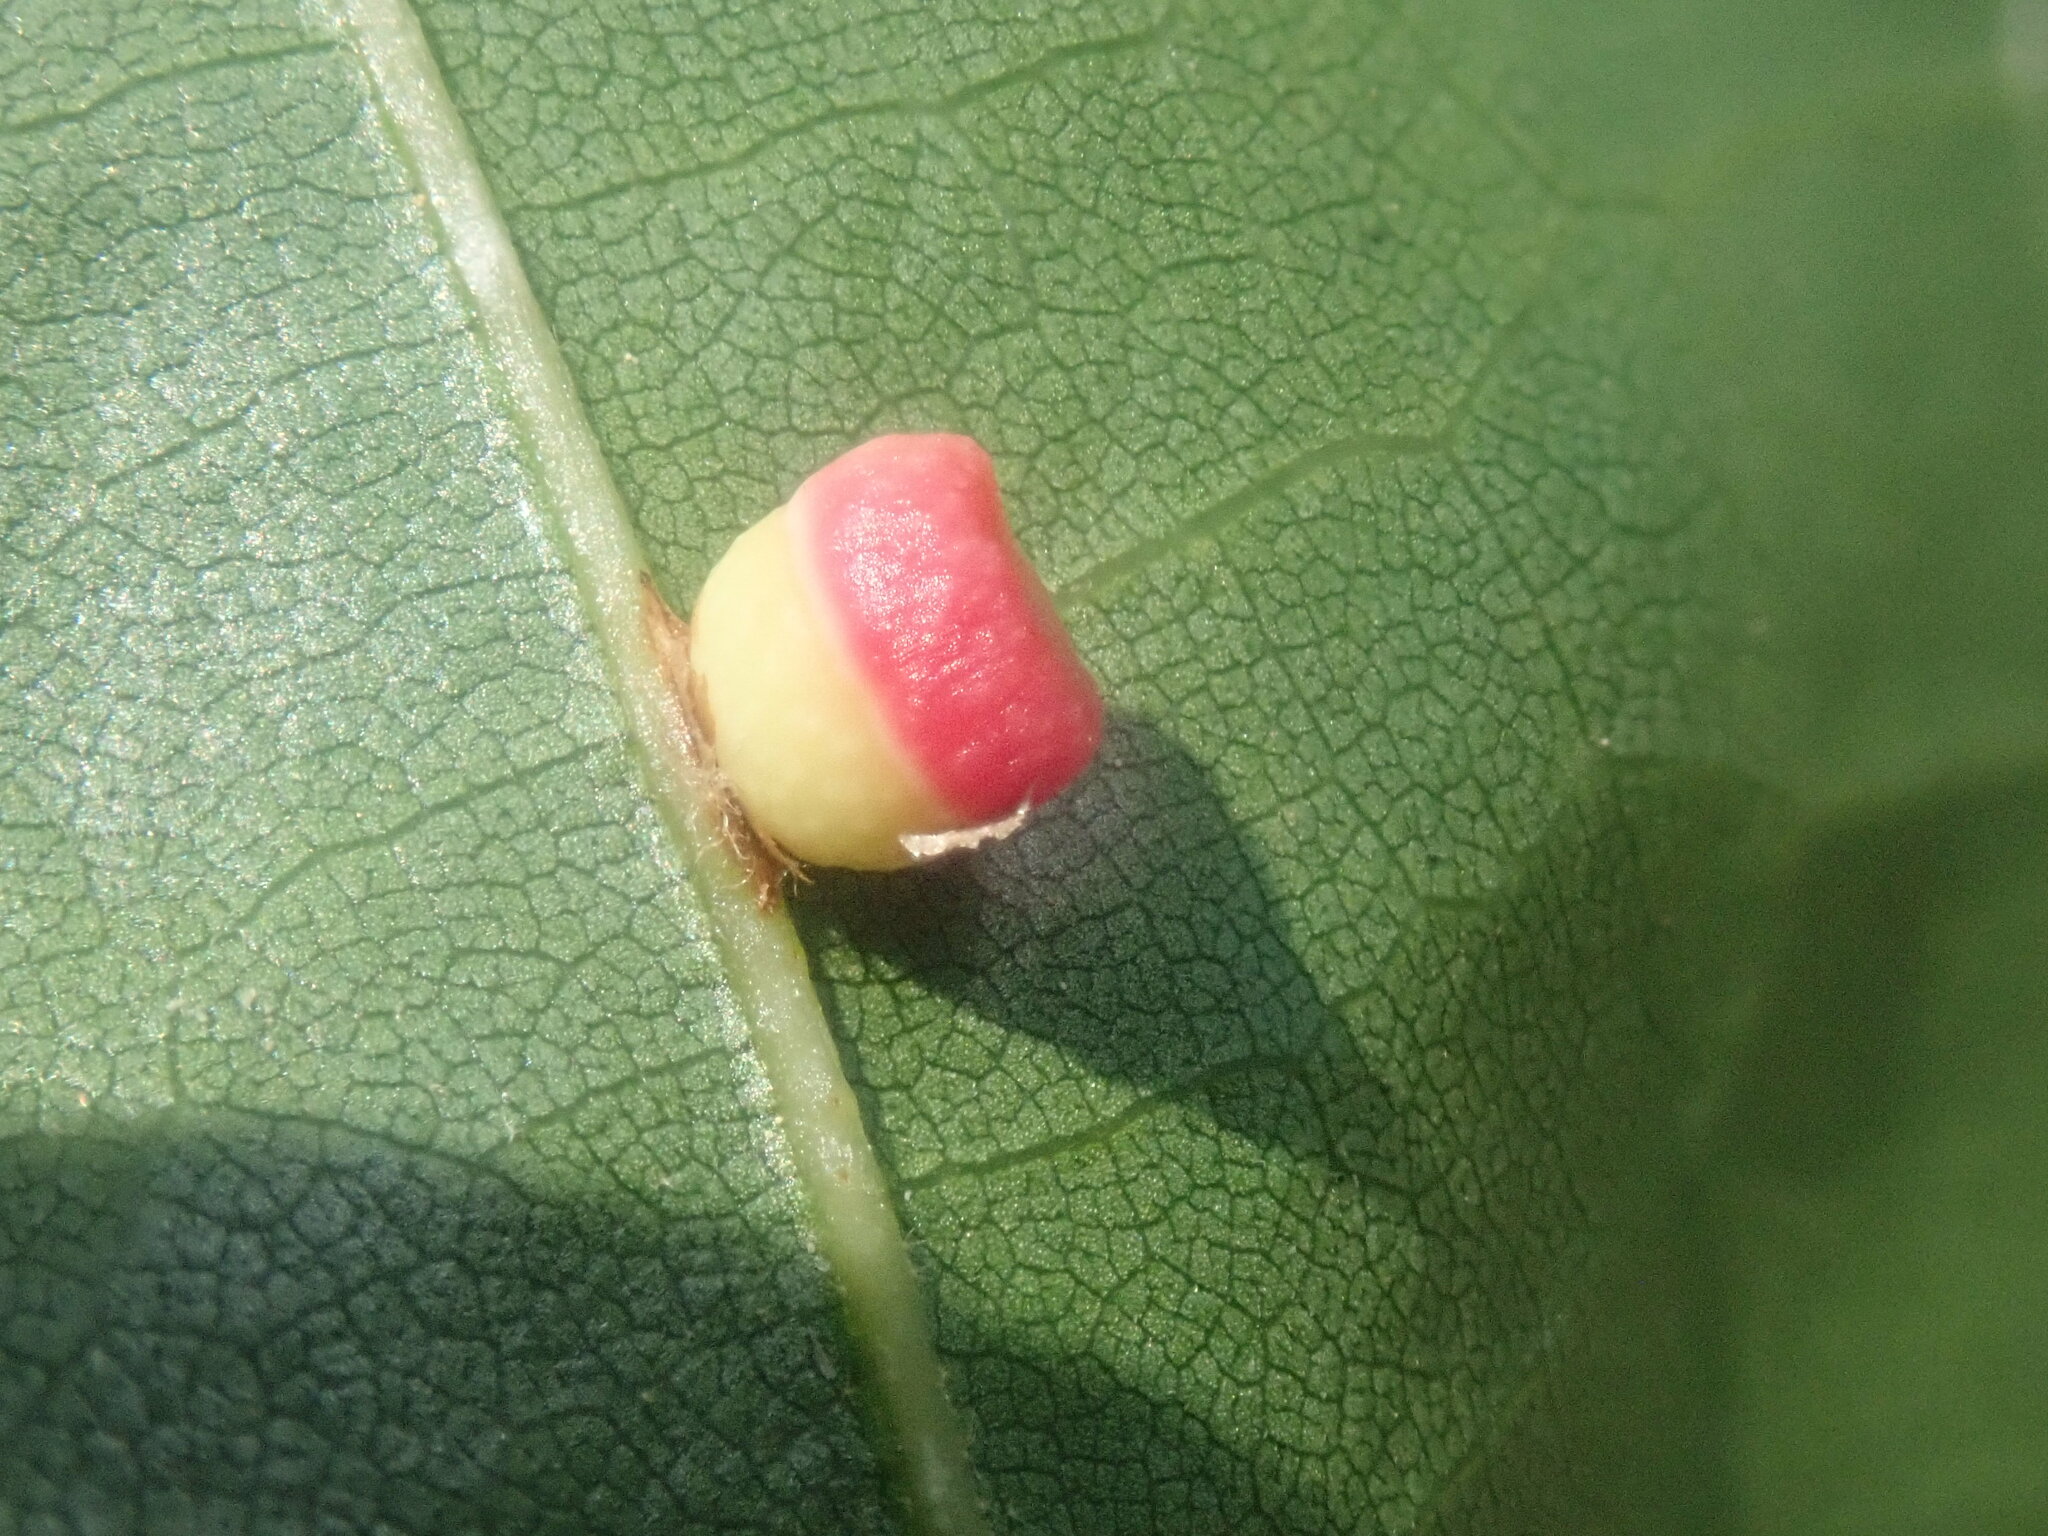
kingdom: Animalia
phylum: Arthropoda
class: Insecta
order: Hymenoptera
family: Cynipidae
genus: Kokkocynips
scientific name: Kokkocynips rileyi
